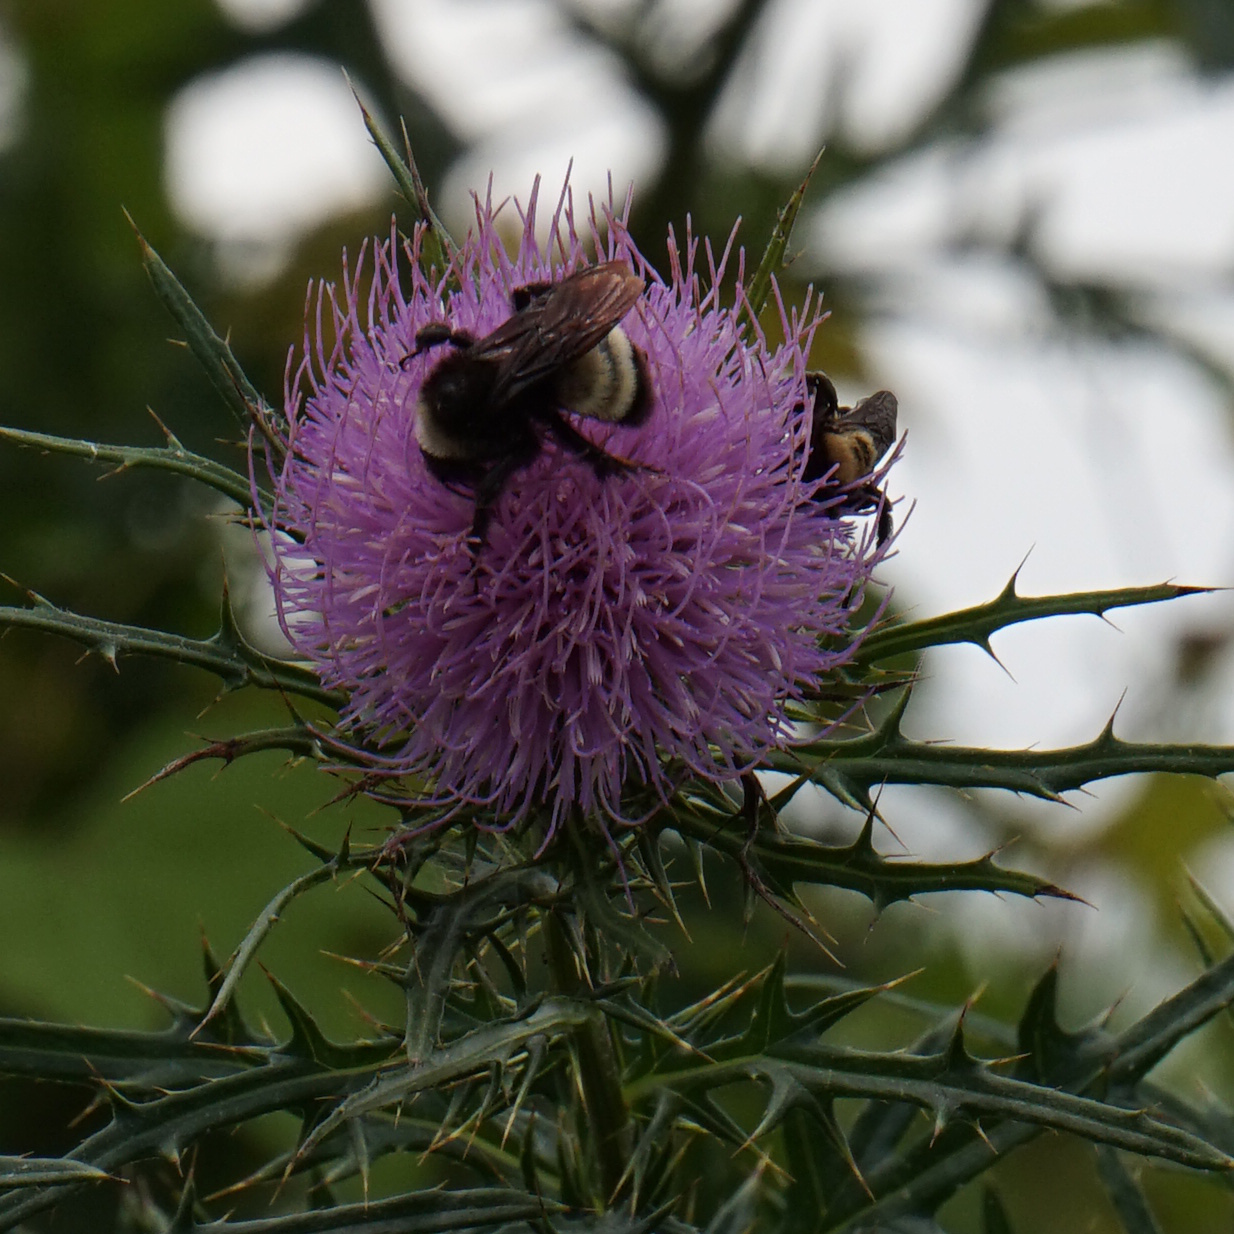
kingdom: Animalia
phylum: Arthropoda
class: Insecta
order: Hymenoptera
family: Apidae
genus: Bombus
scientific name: Bombus pensylvanicus
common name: Bumble bee
